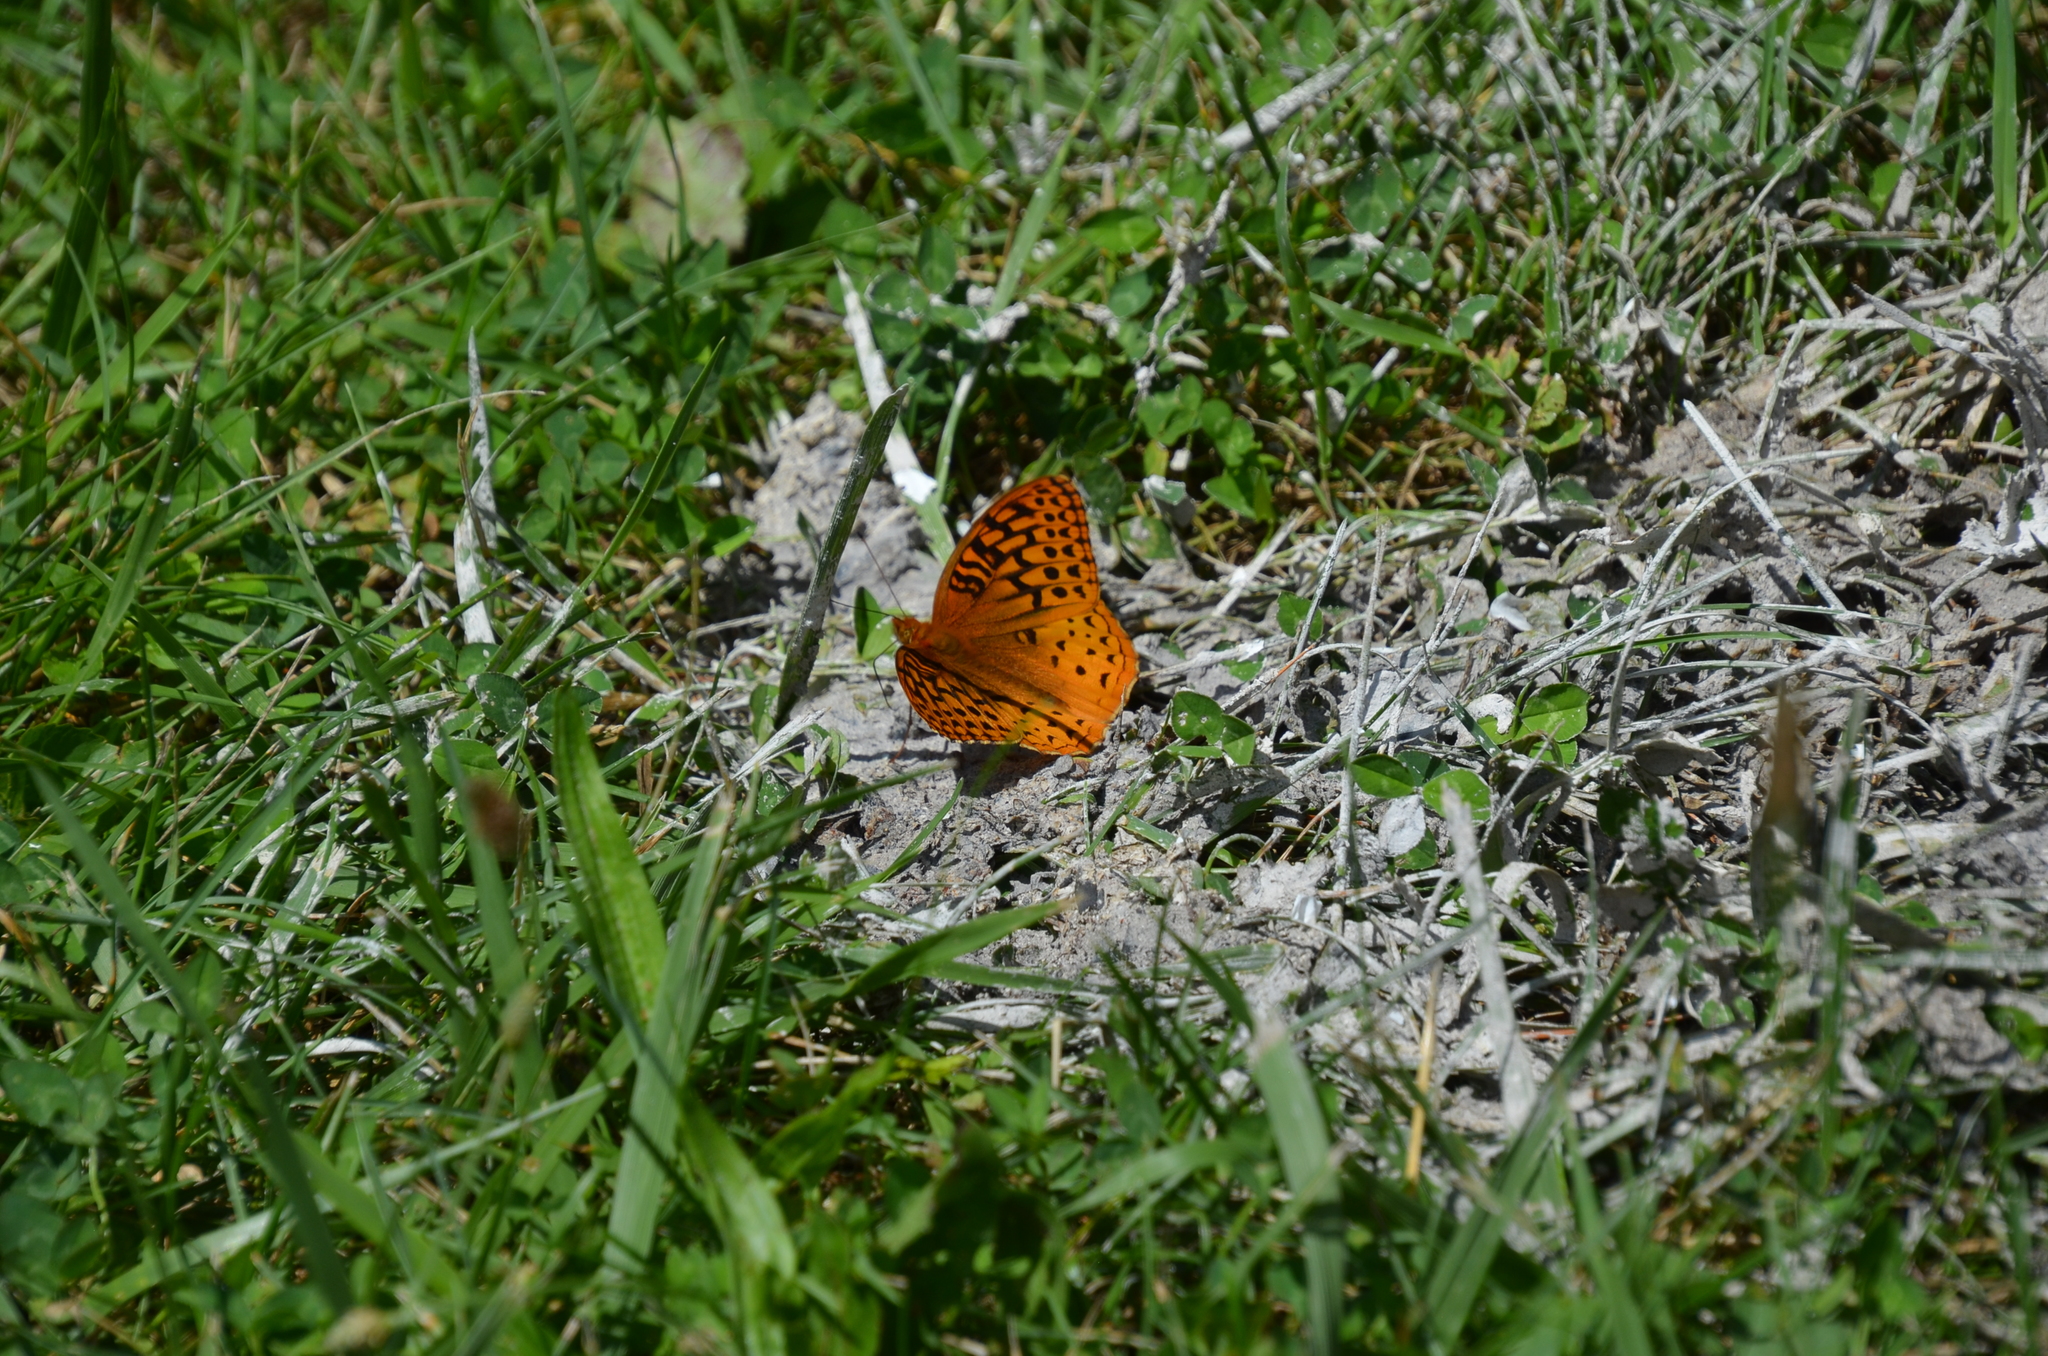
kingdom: Animalia
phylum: Arthropoda
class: Insecta
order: Lepidoptera
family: Nymphalidae
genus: Speyeria
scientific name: Speyeria cybele
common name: Great spangled fritillary
